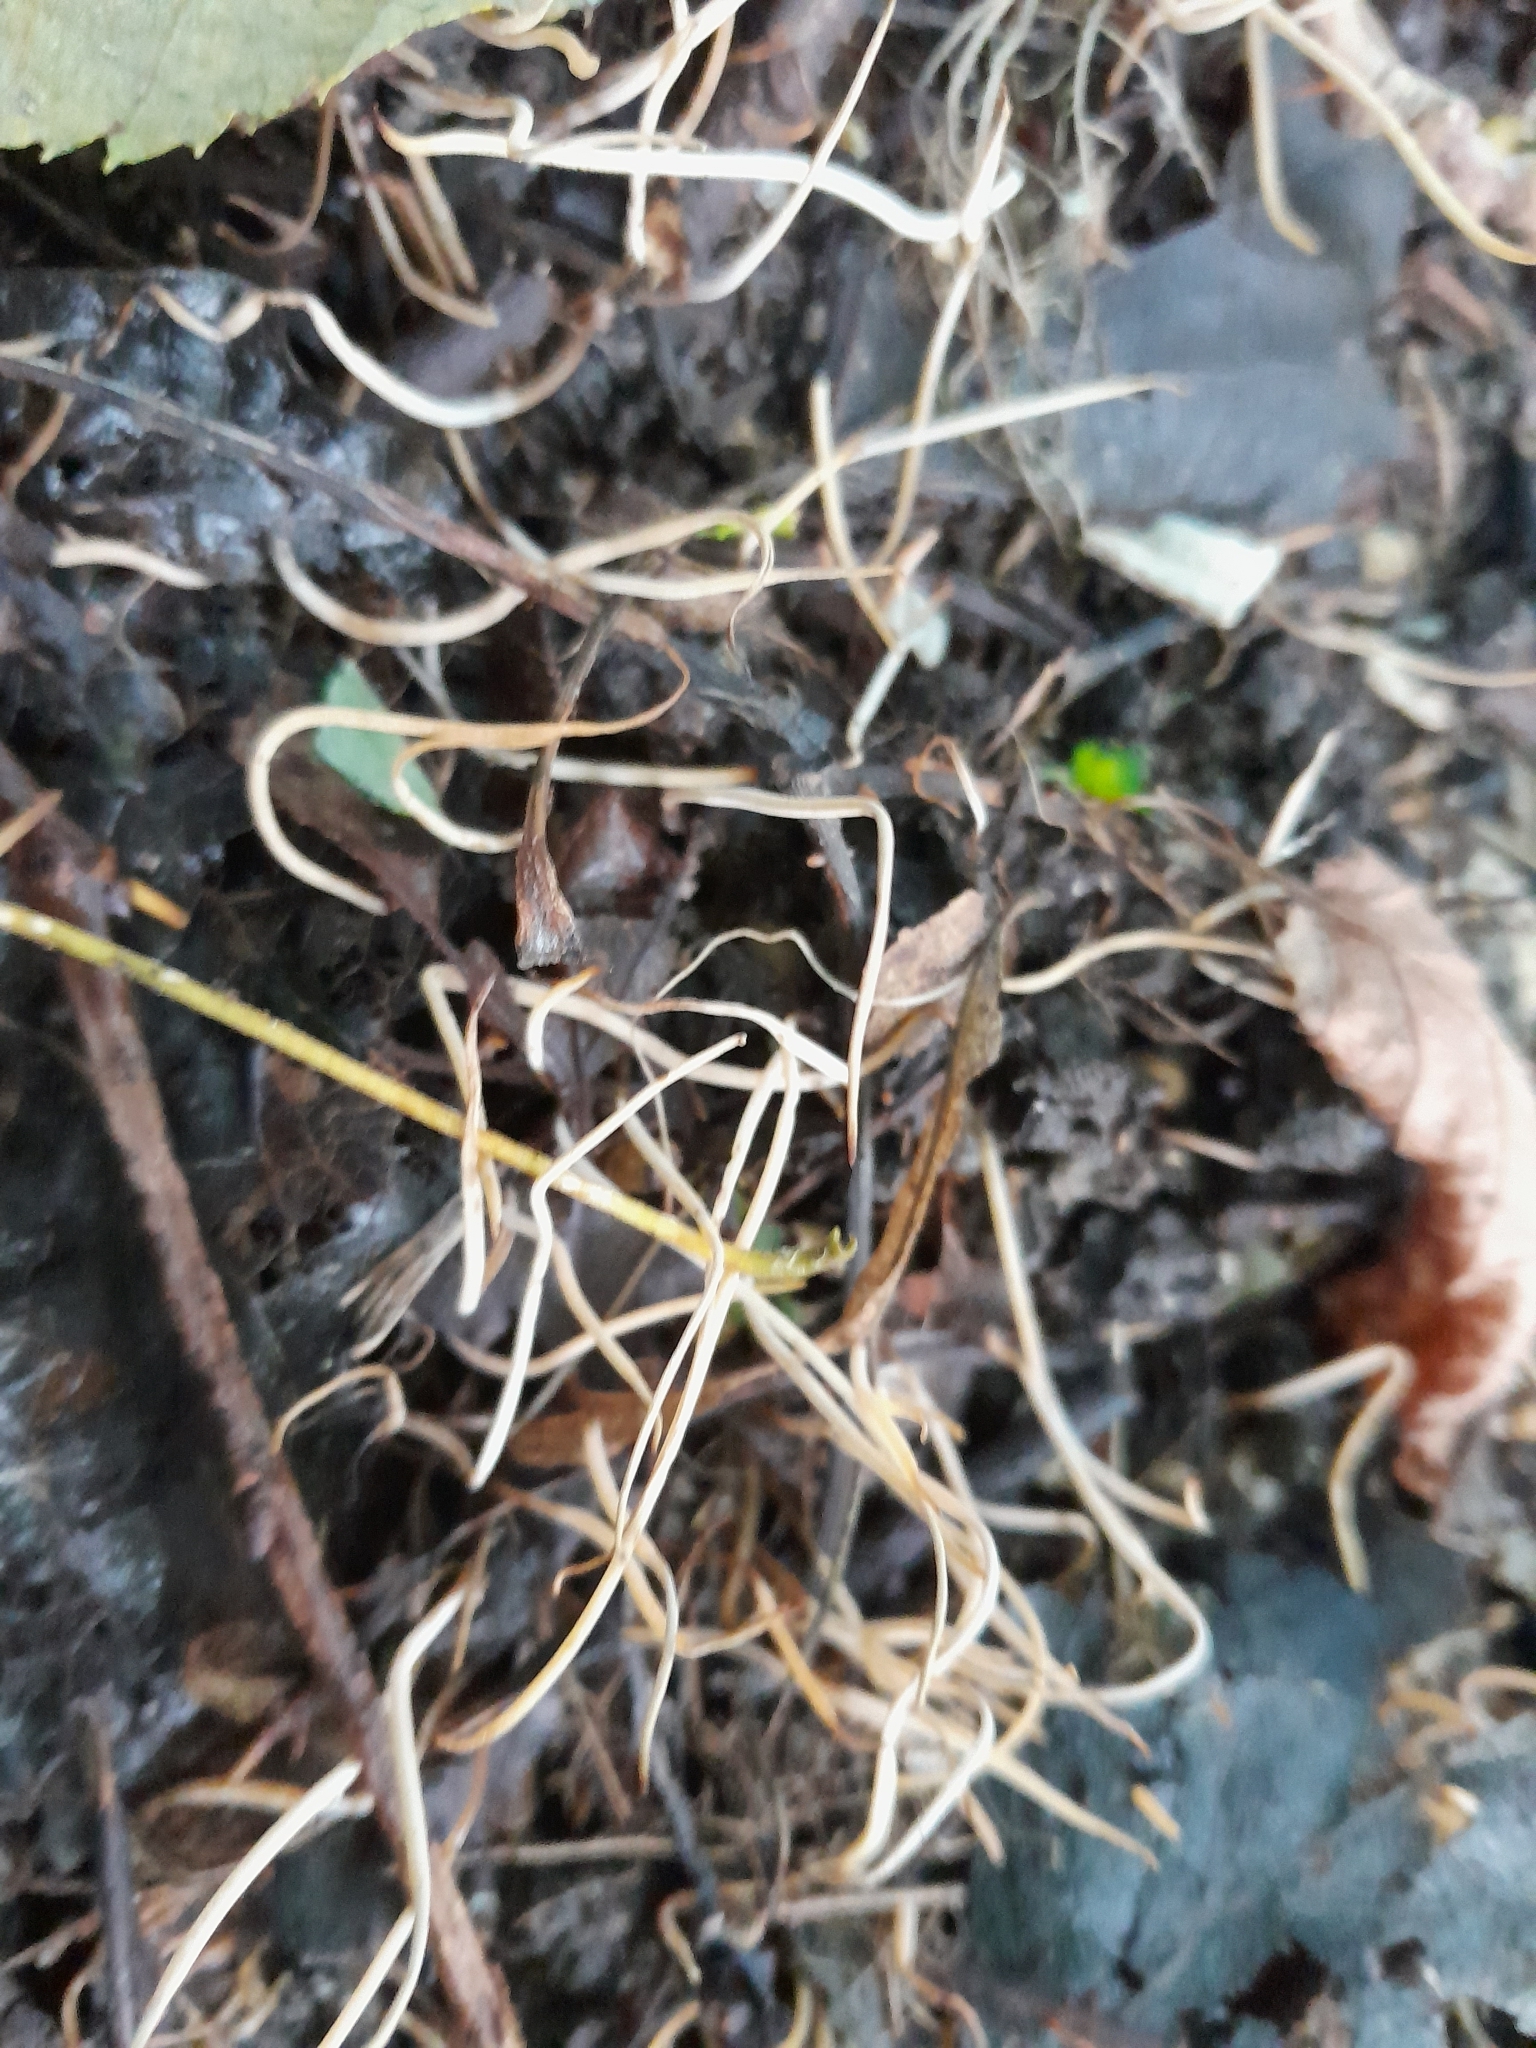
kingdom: Fungi
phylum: Basidiomycota
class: Agaricomycetes
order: Agaricales
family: Typhulaceae
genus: Typhula
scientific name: Typhula juncea
